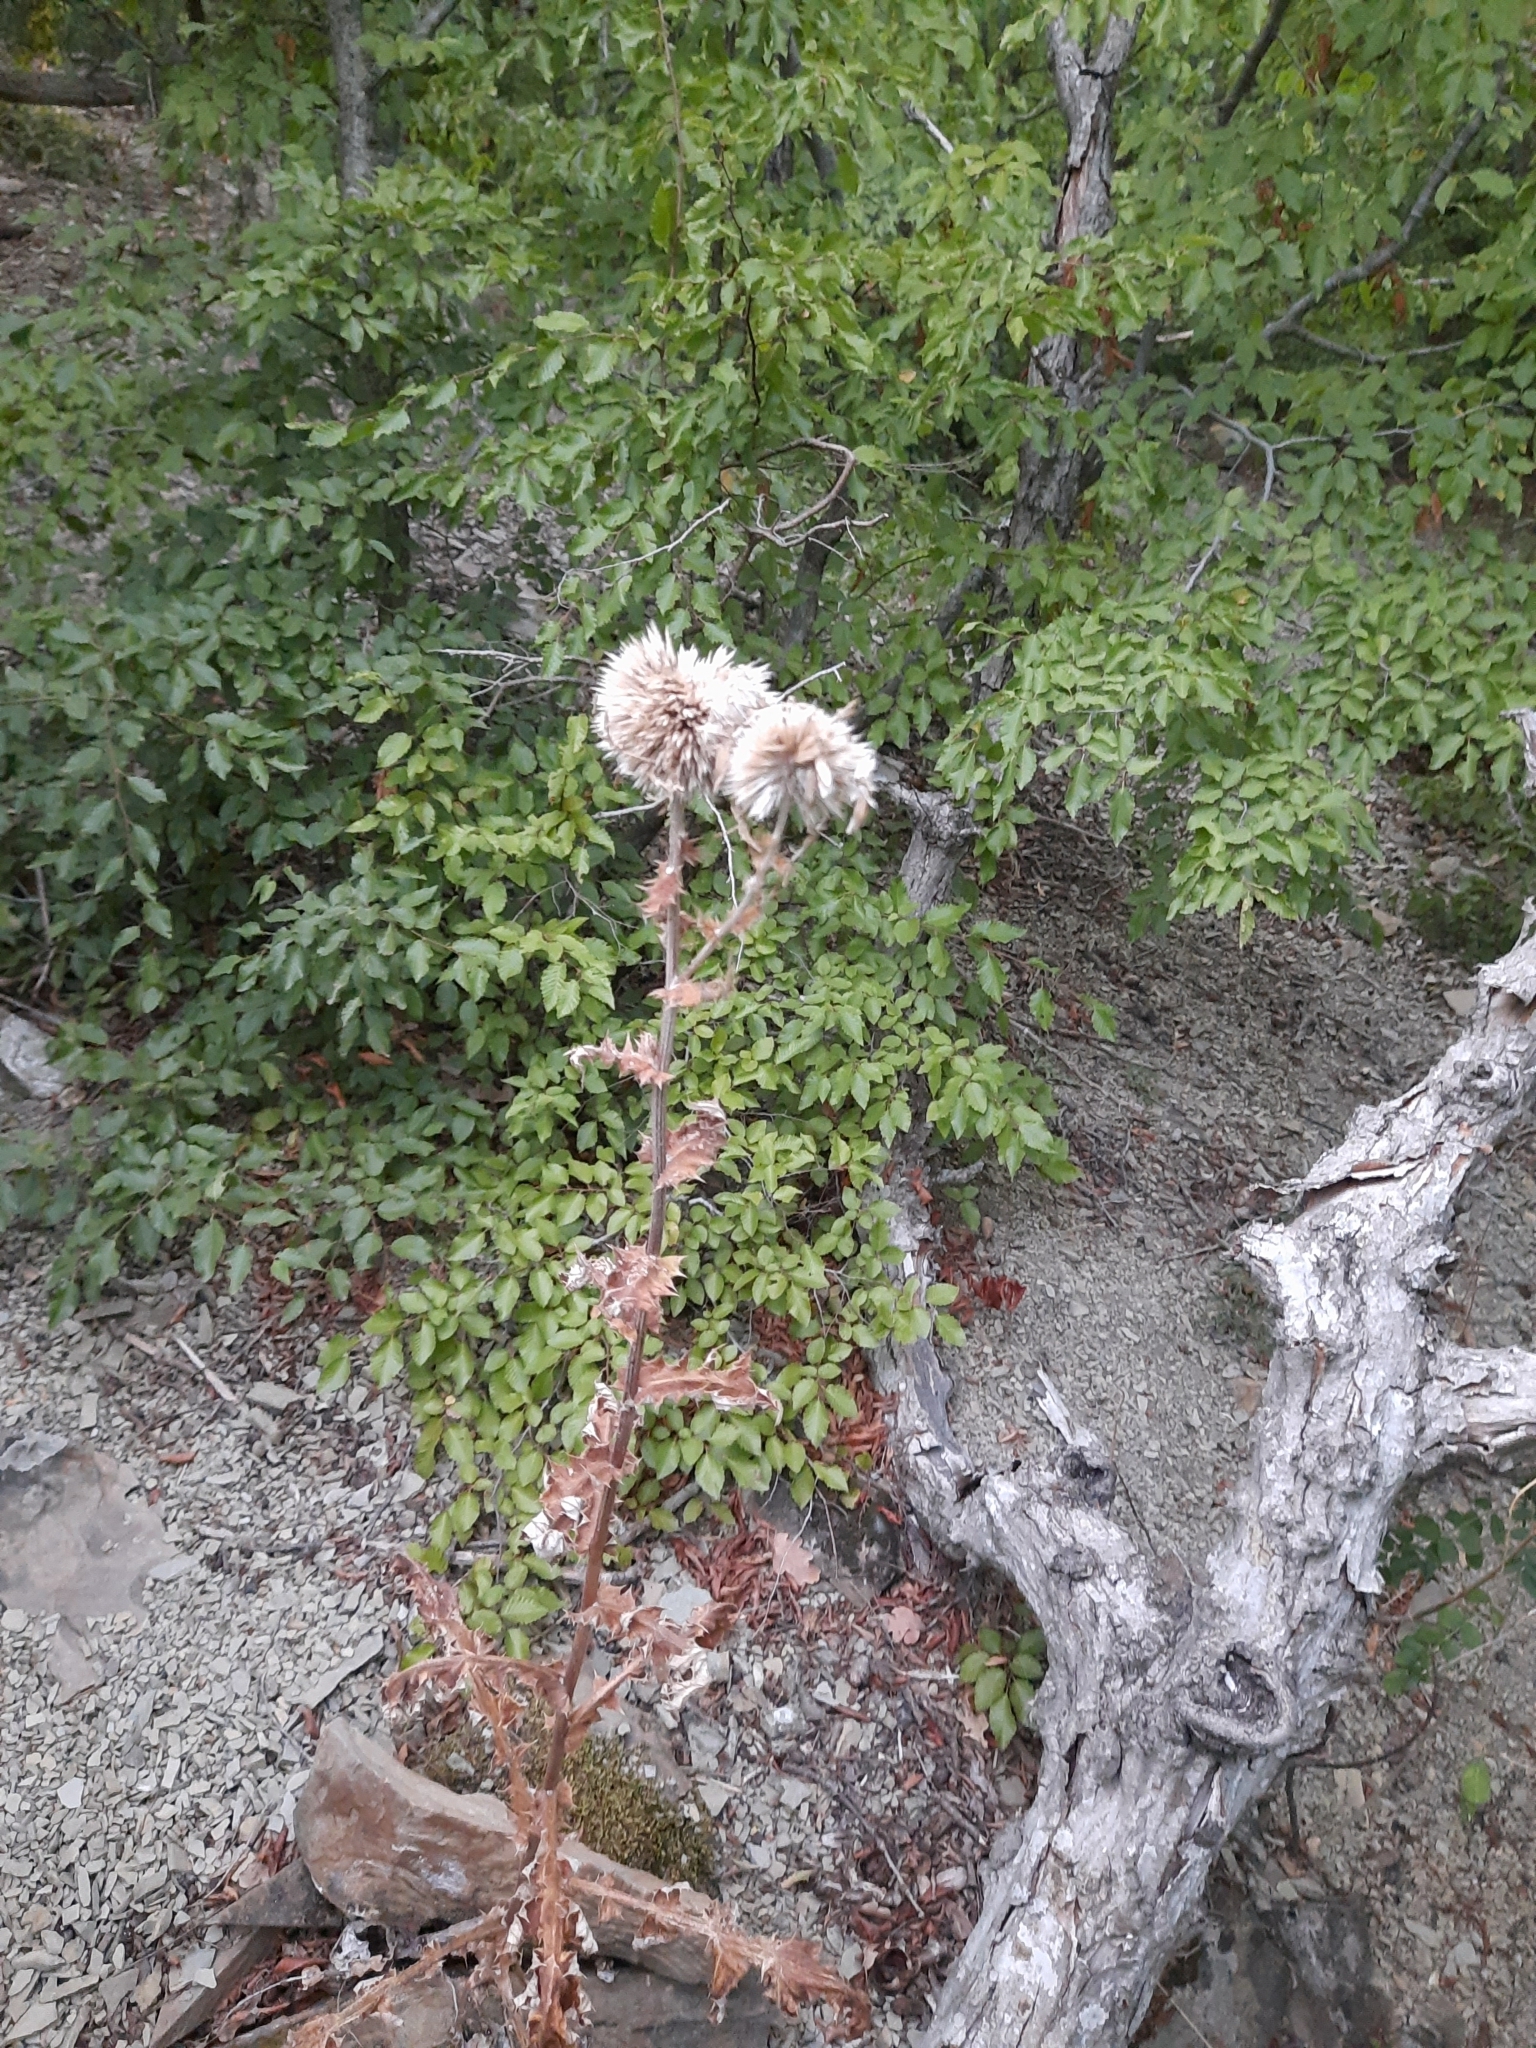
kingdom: Plantae
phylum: Tracheophyta
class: Magnoliopsida
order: Asterales
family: Asteraceae
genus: Echinops
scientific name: Echinops sphaerocephalus
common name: Glandular globe-thistle
